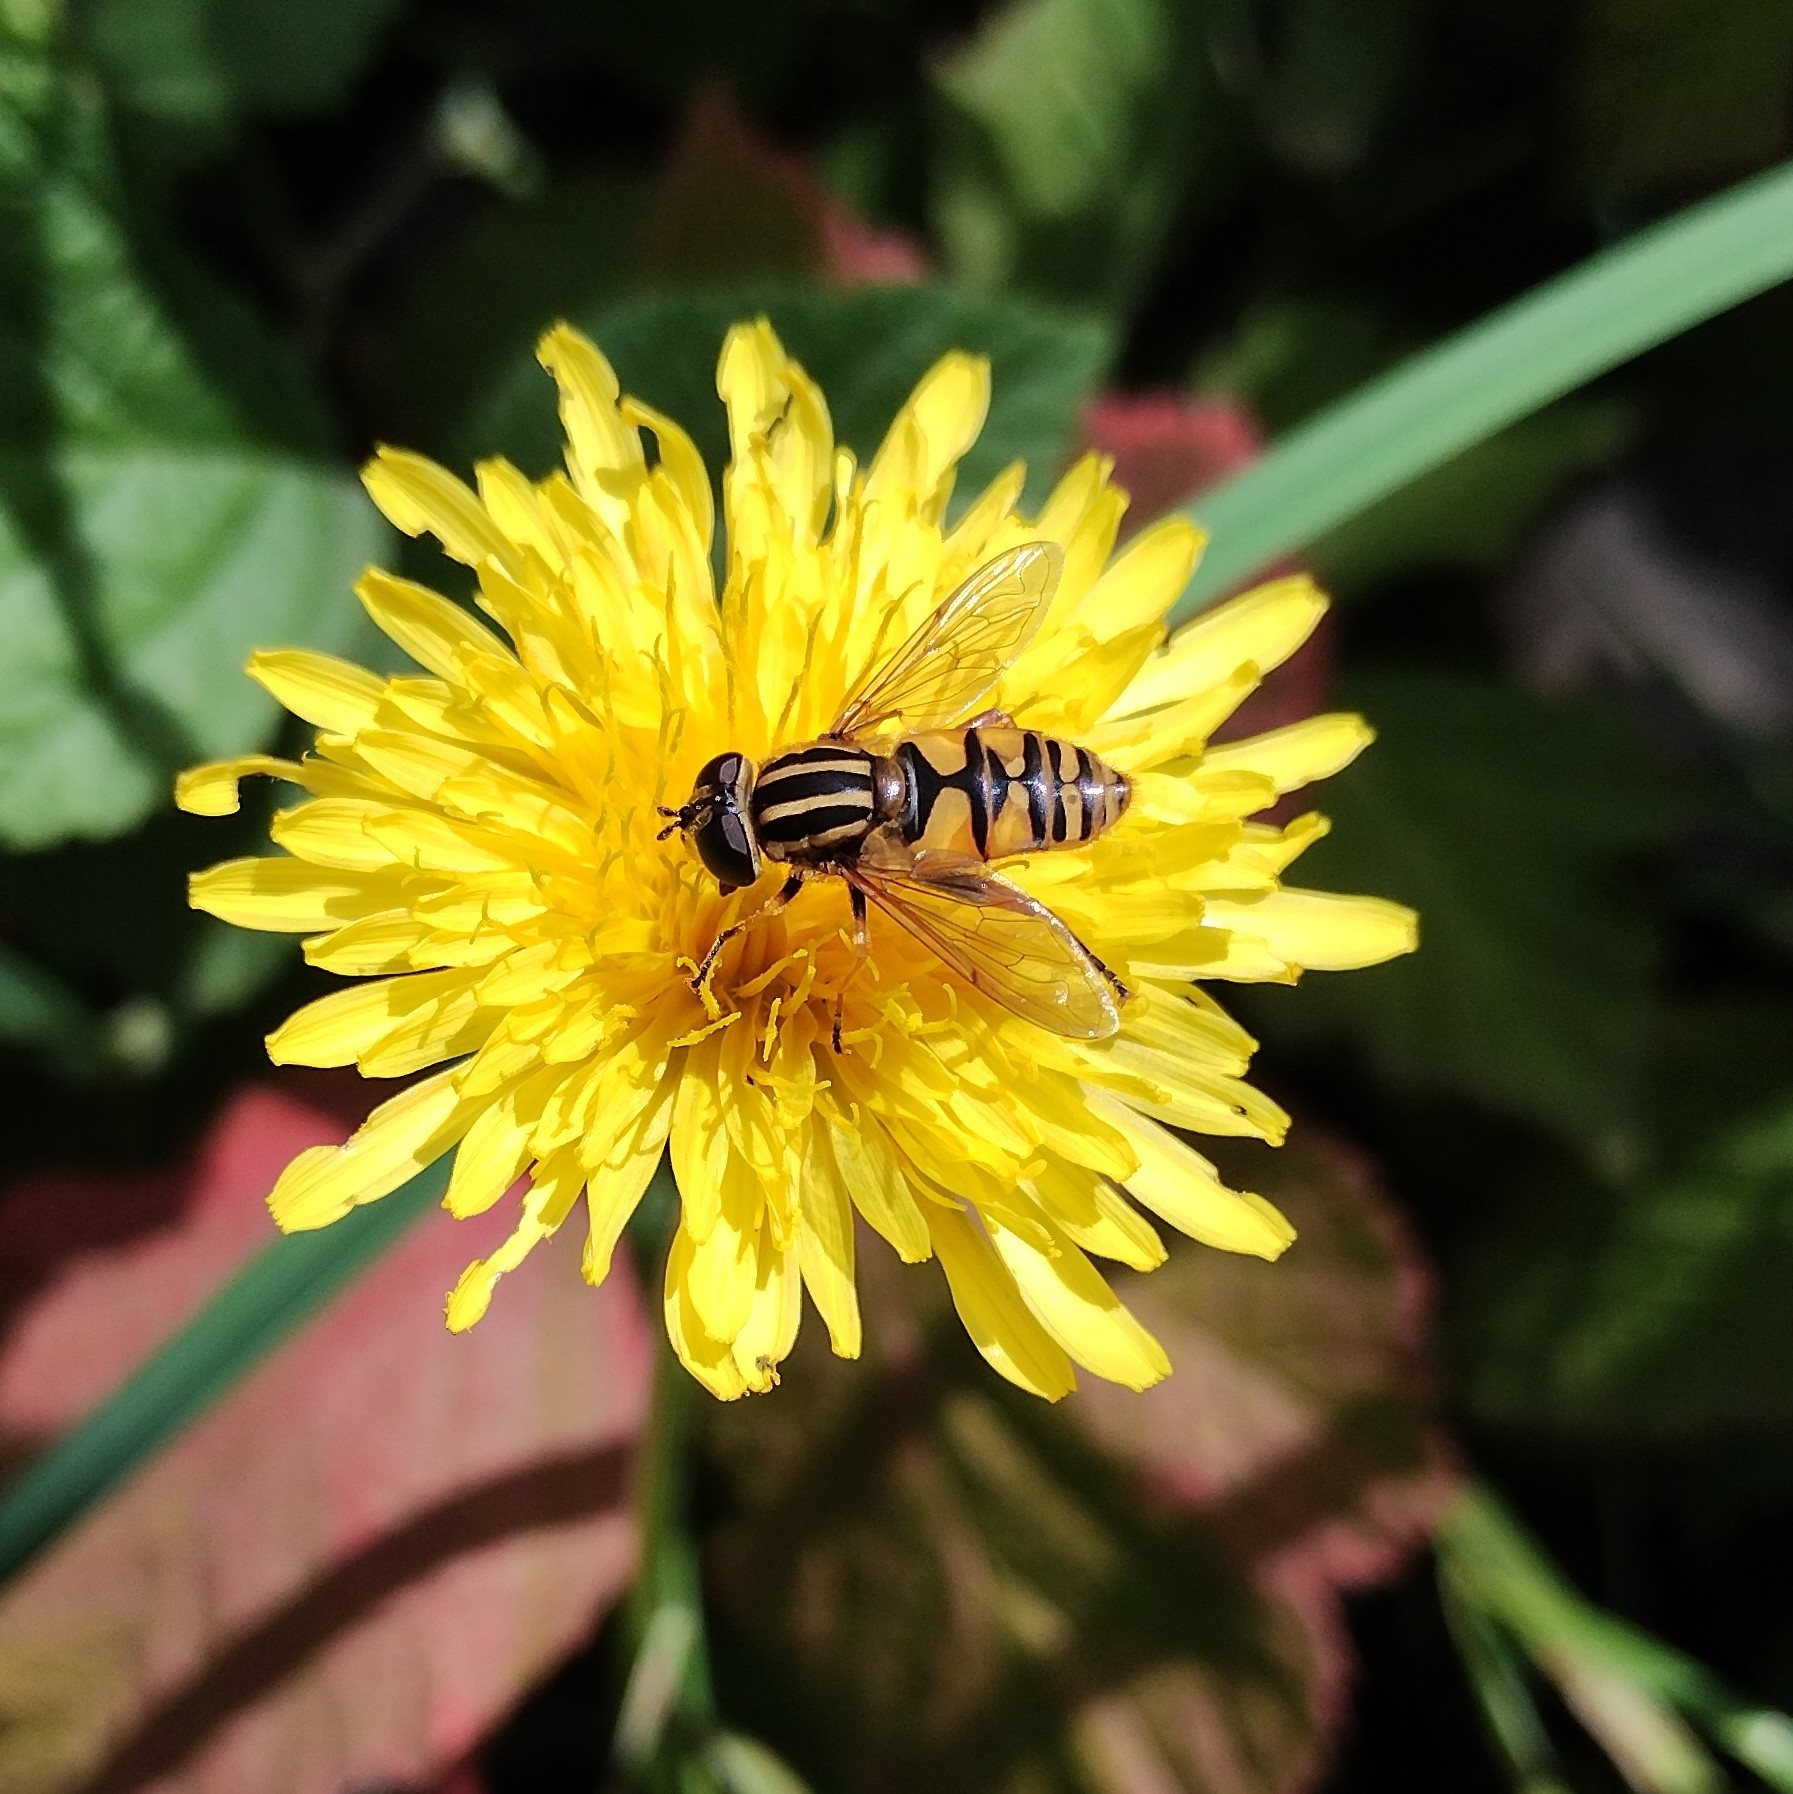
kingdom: Animalia
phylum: Arthropoda
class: Insecta
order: Diptera
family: Syrphidae
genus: Helophilus
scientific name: Helophilus pendulus
